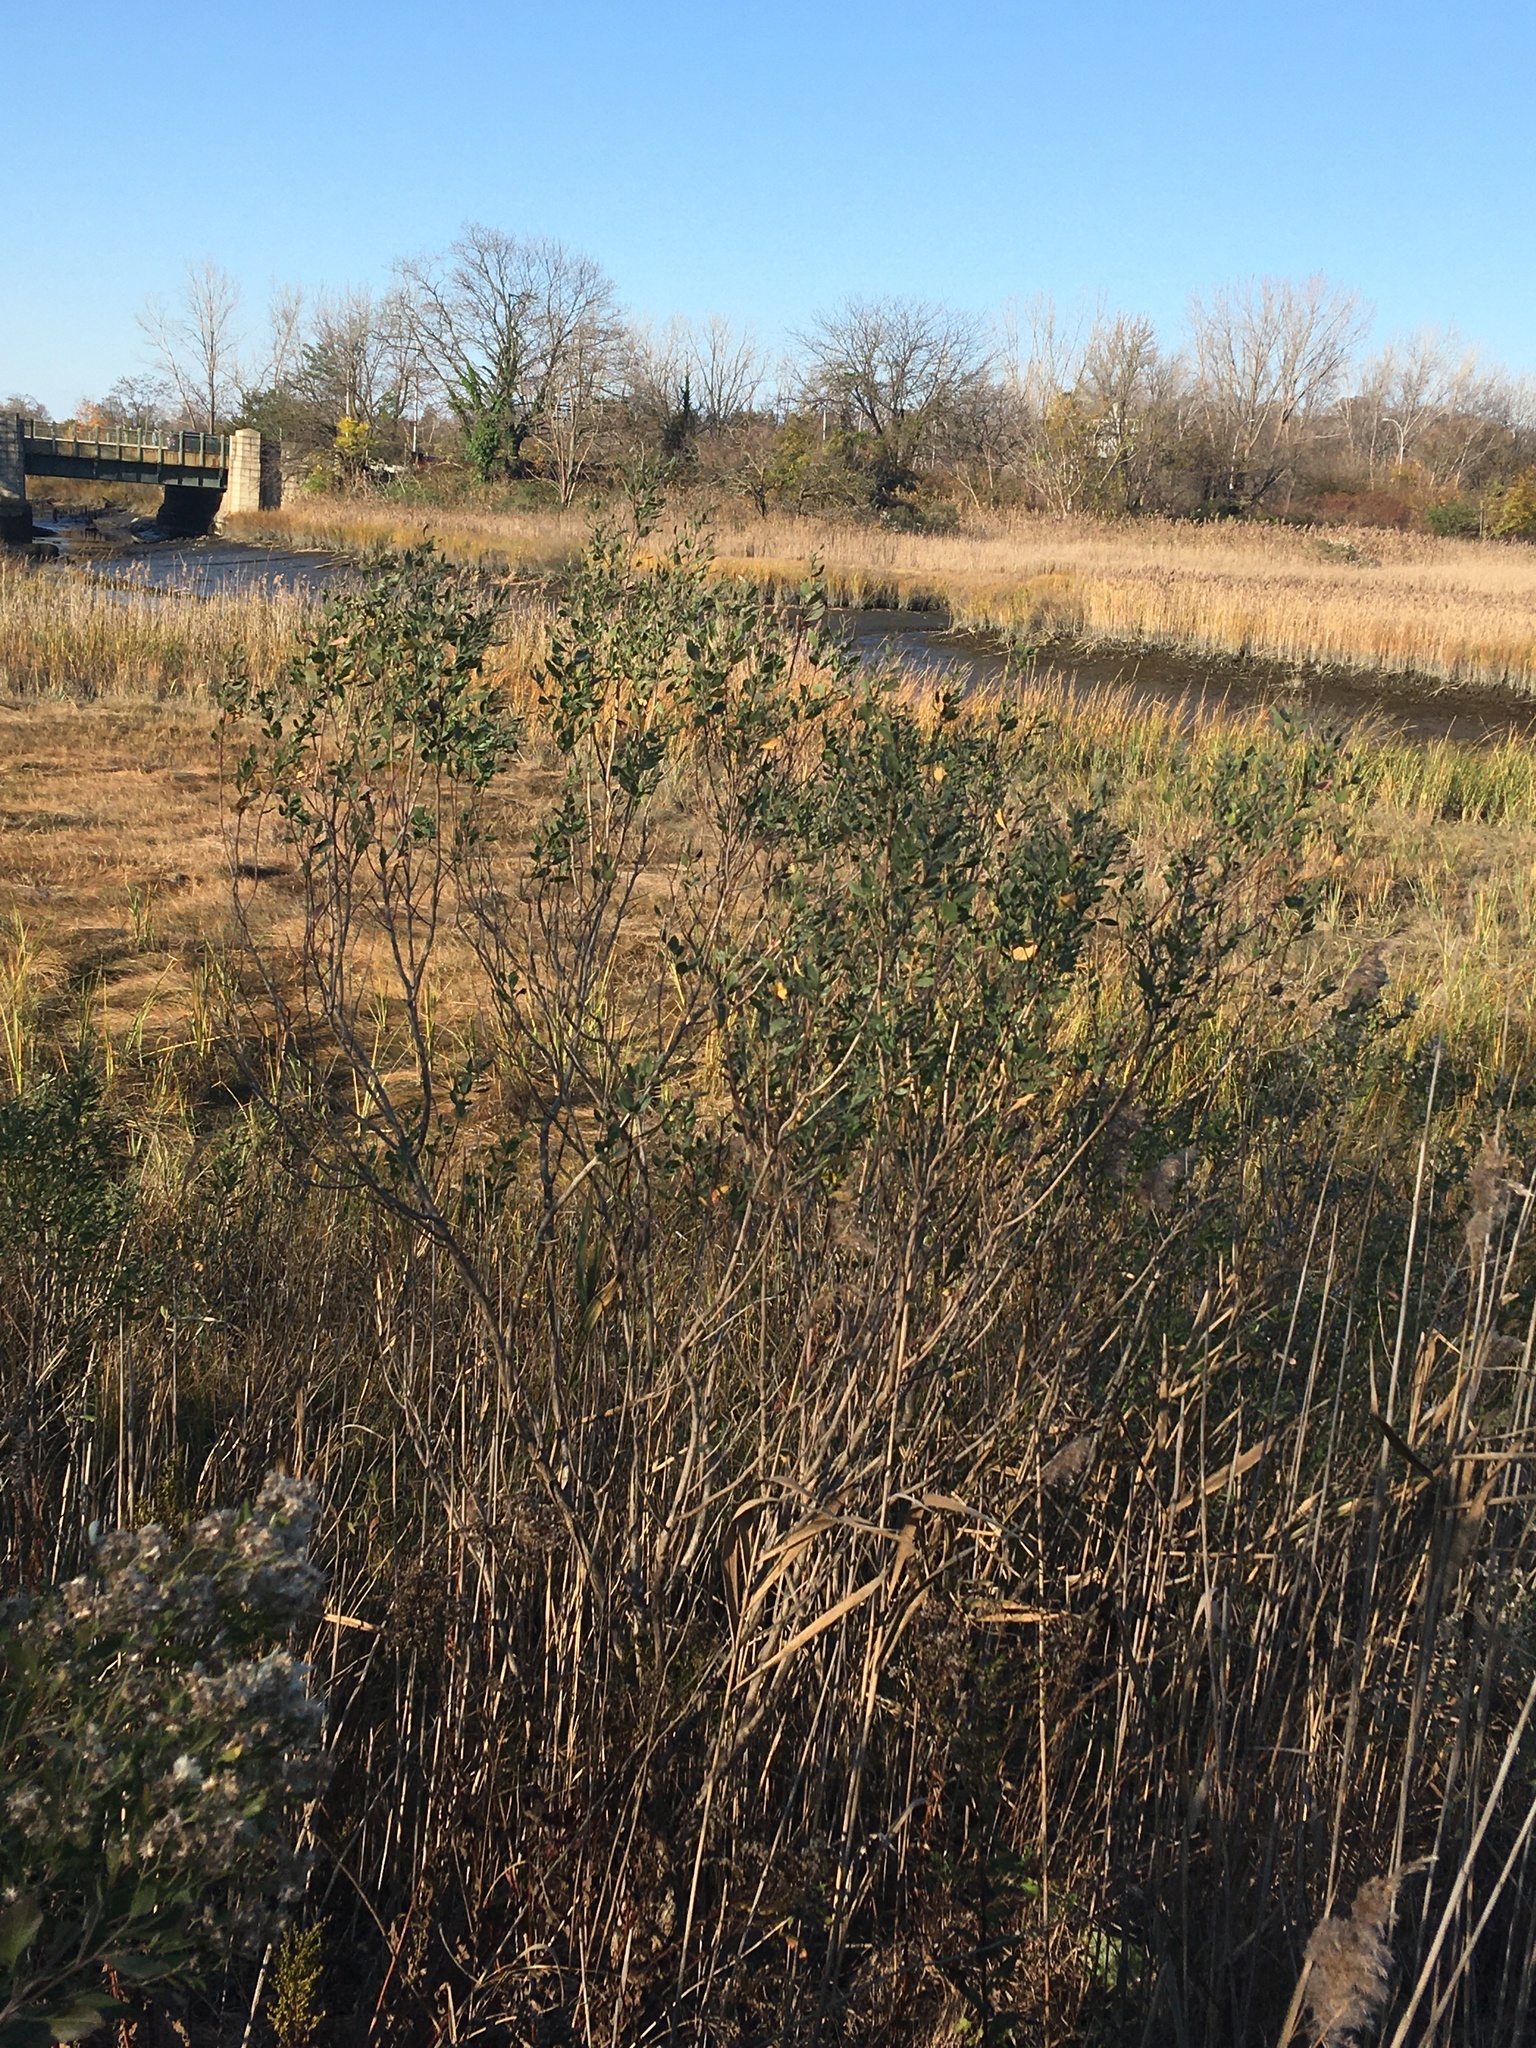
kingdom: Plantae
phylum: Tracheophyta
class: Magnoliopsida
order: Asterales
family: Asteraceae
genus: Baccharis
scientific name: Baccharis halimifolia
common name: Eastern baccharis
